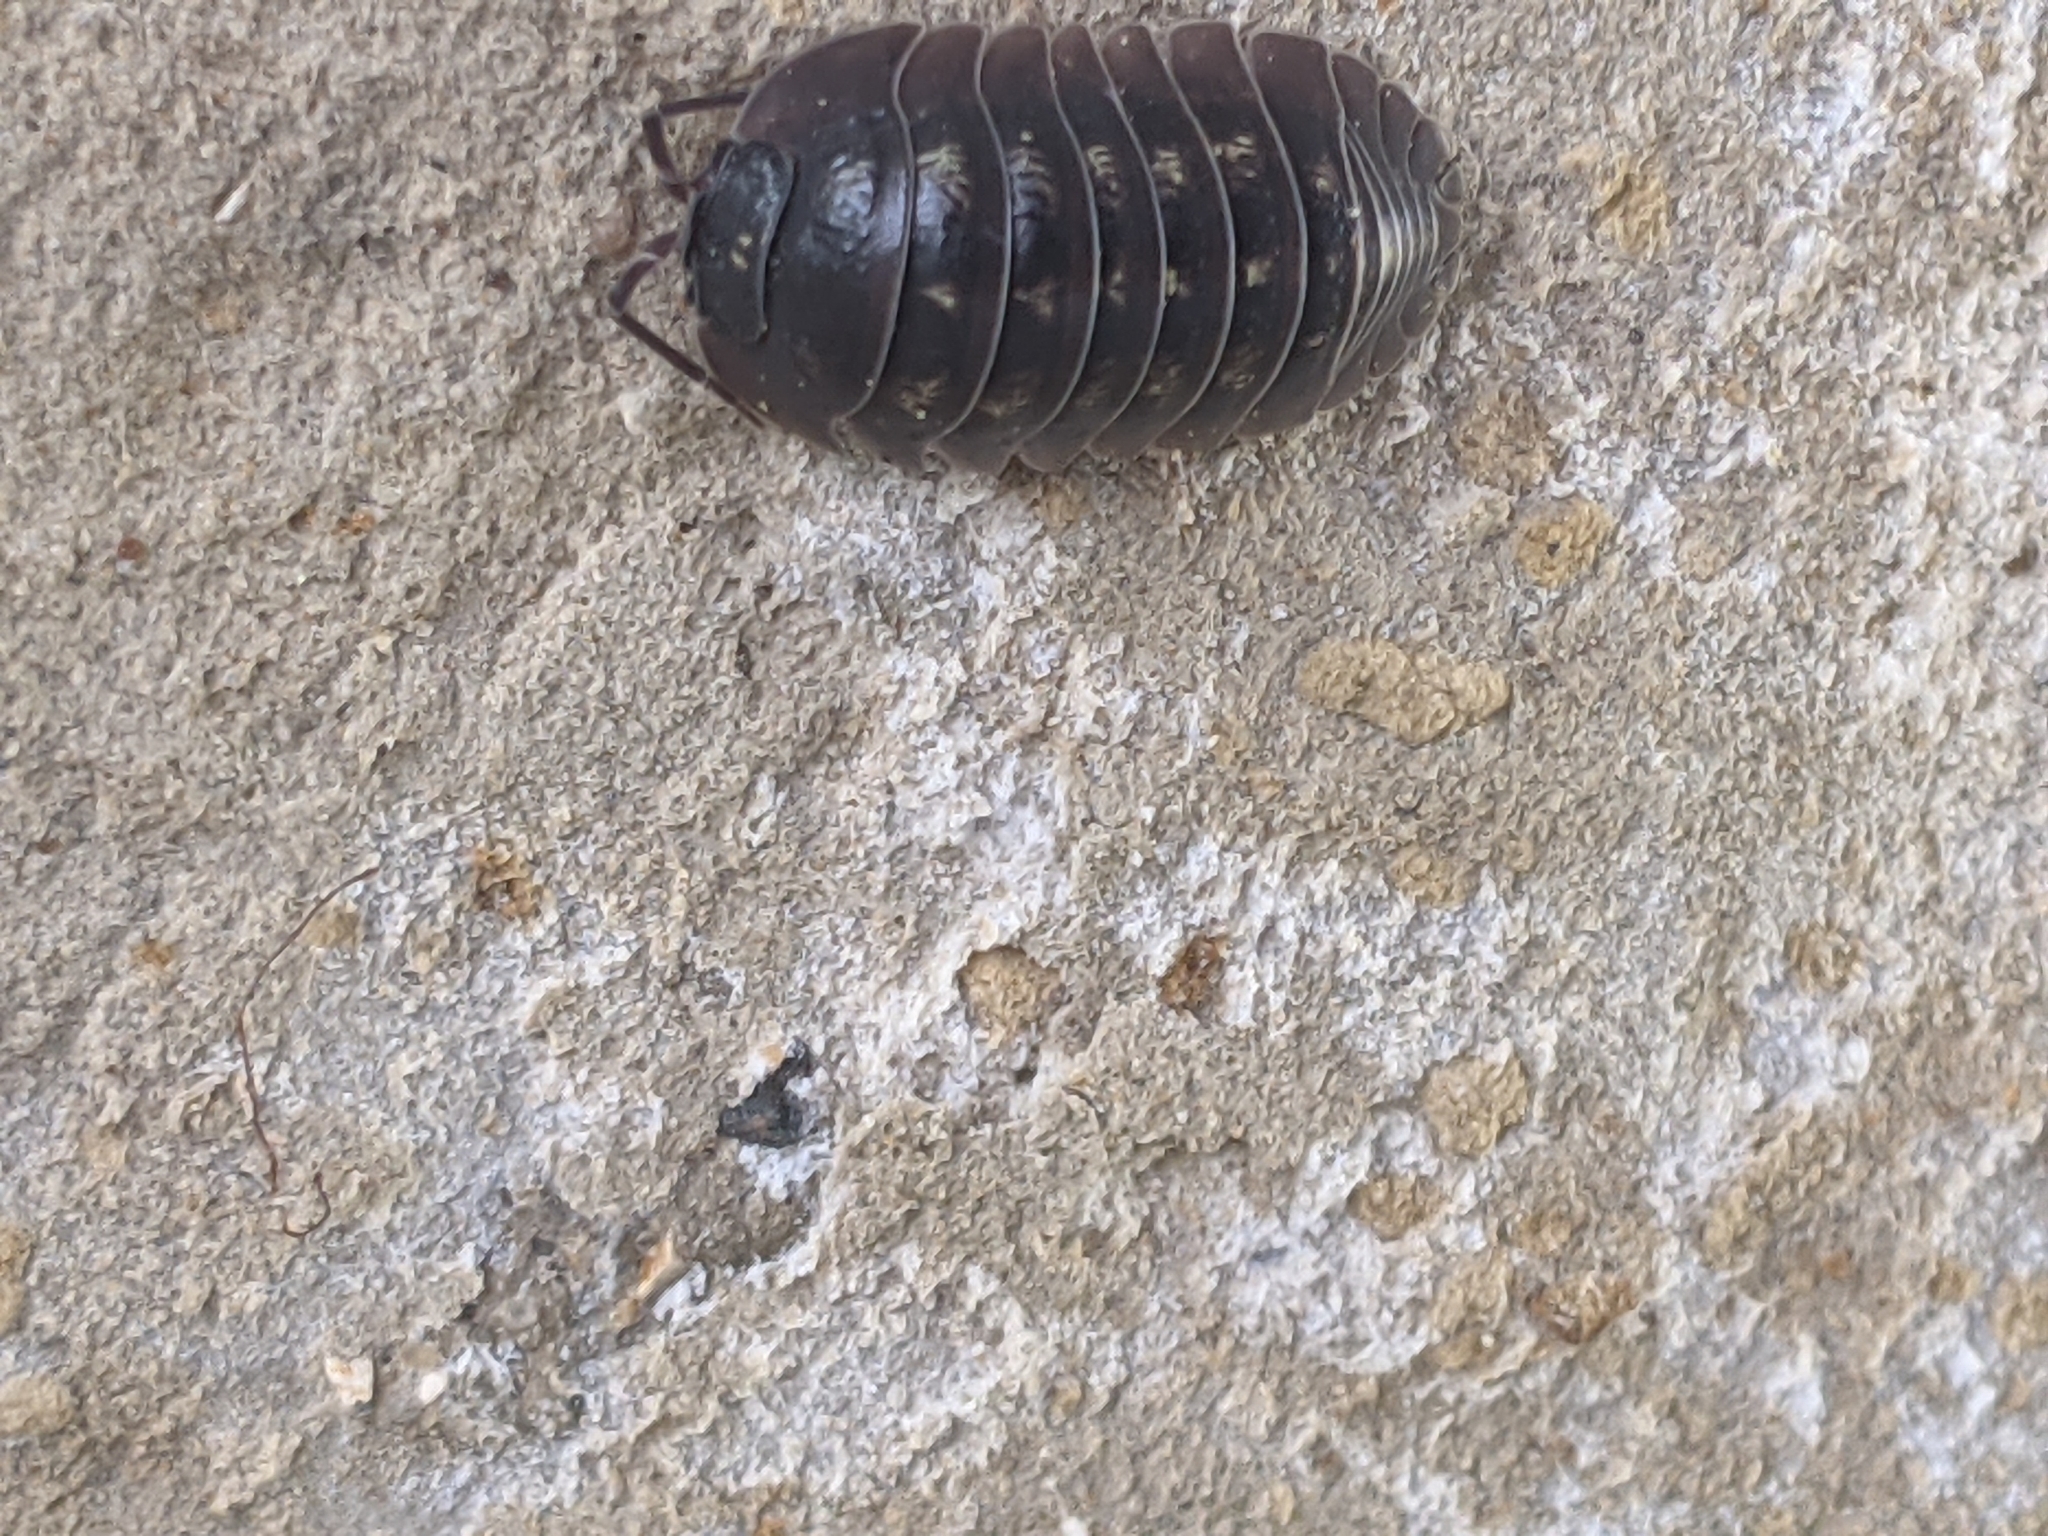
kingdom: Animalia
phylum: Arthropoda
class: Malacostraca
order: Isopoda
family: Armadillidiidae
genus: Armadillidium
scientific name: Armadillidium depressum
